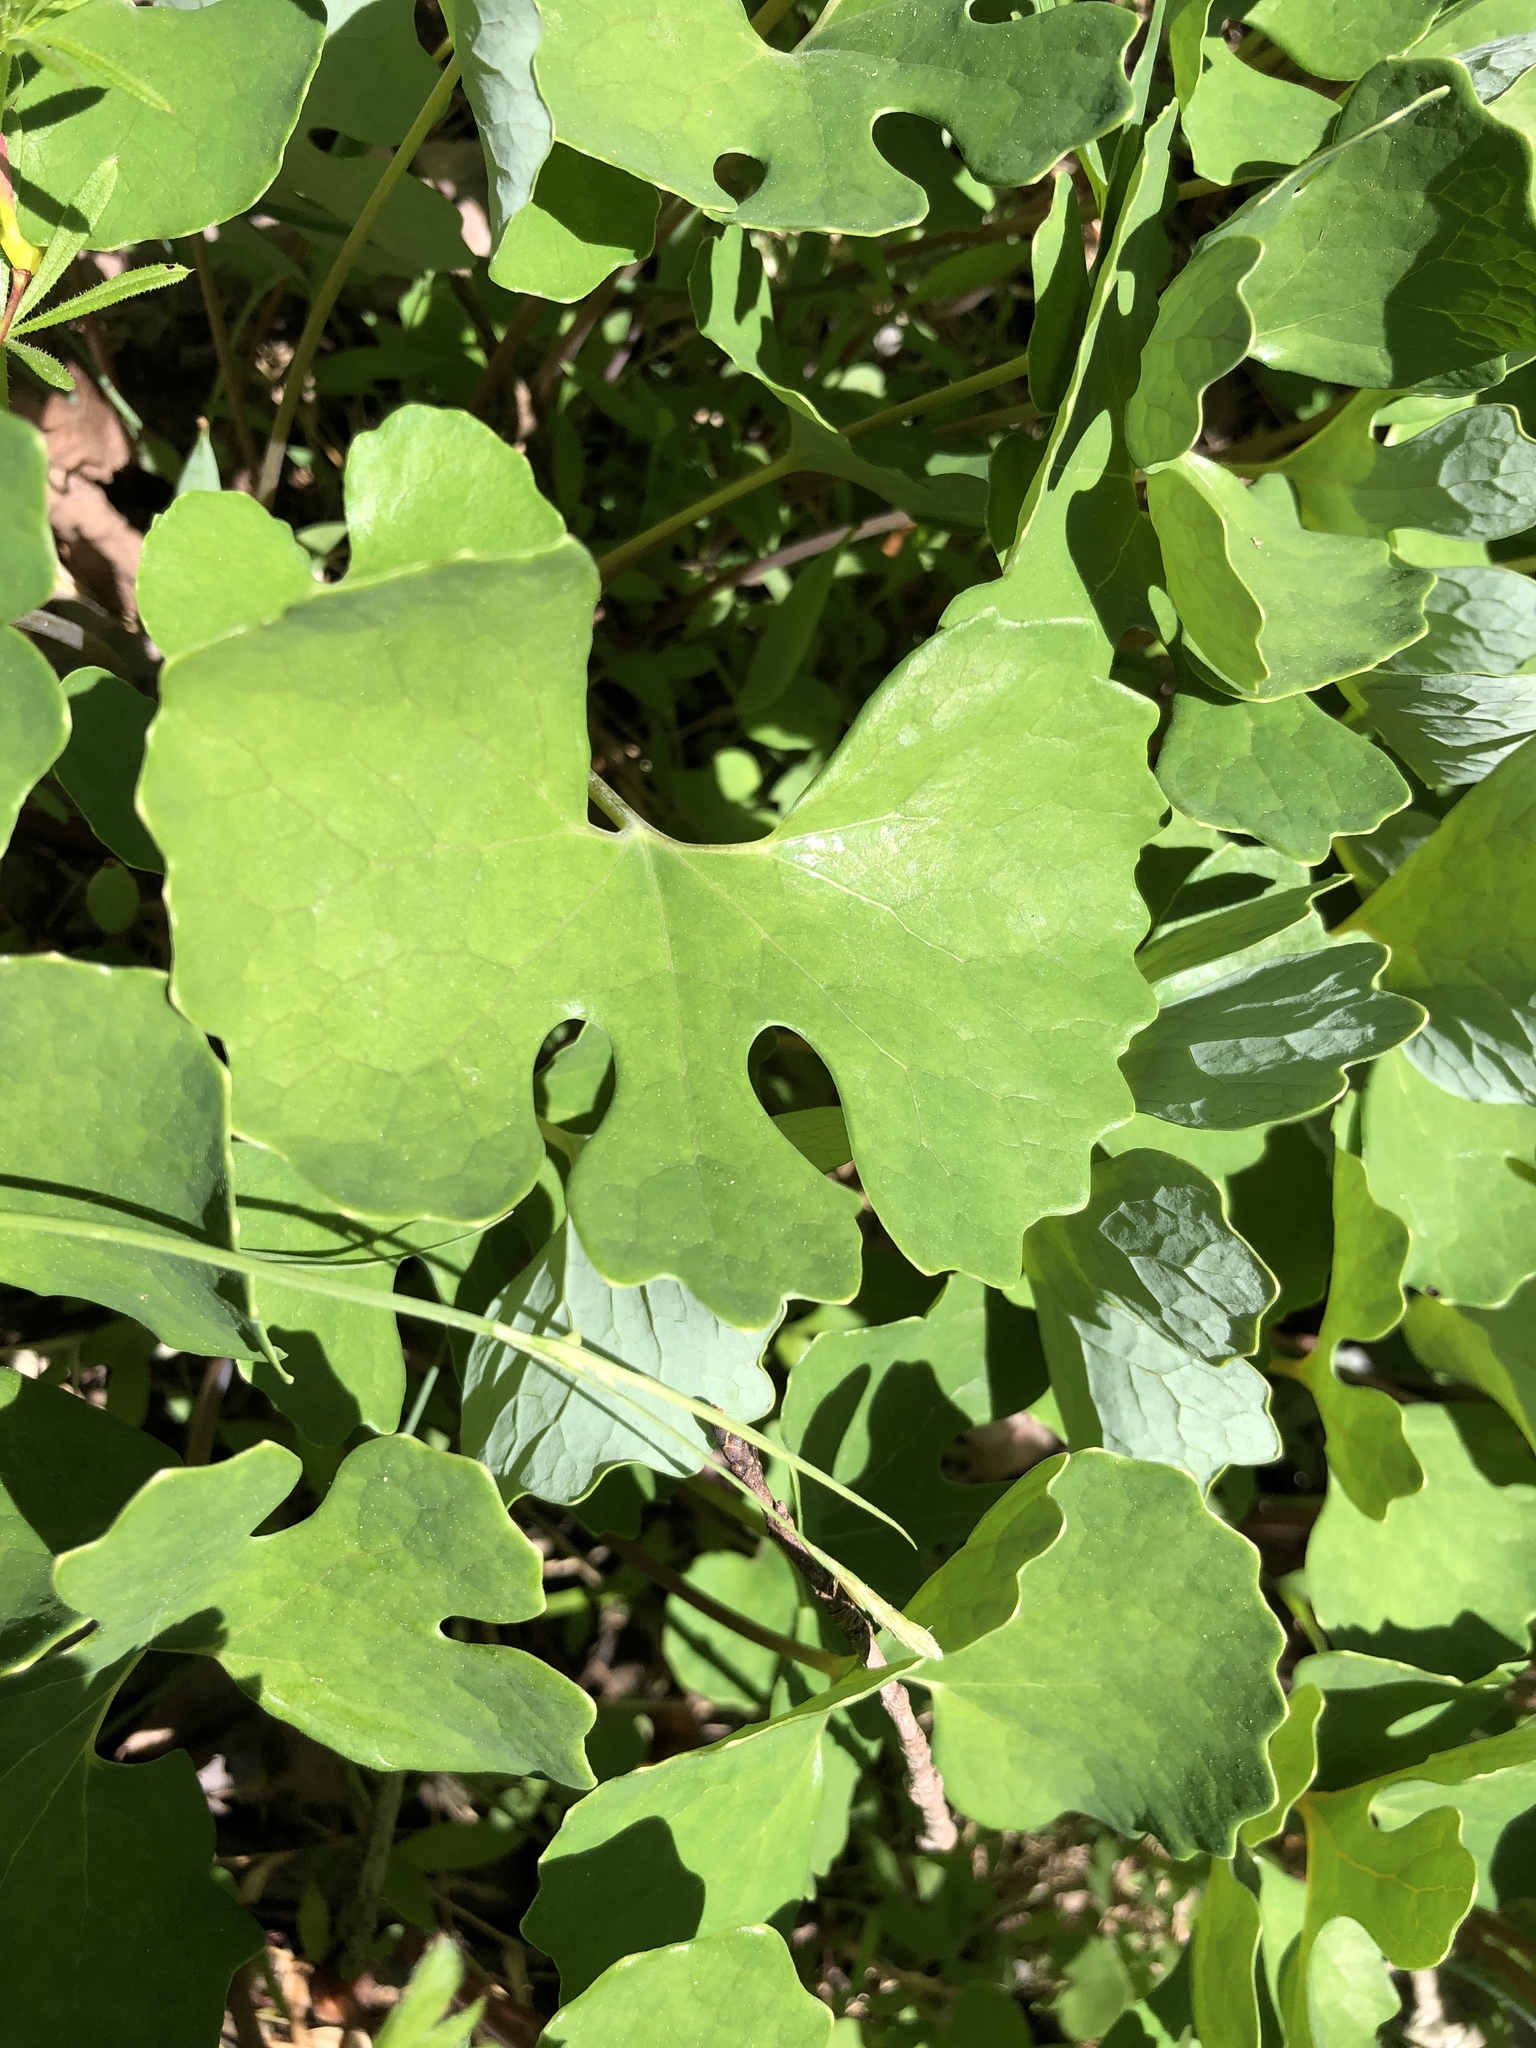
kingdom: Plantae
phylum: Tracheophyta
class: Magnoliopsida
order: Ranunculales
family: Papaveraceae
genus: Sanguinaria
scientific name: Sanguinaria canadensis
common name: Bloodroot
